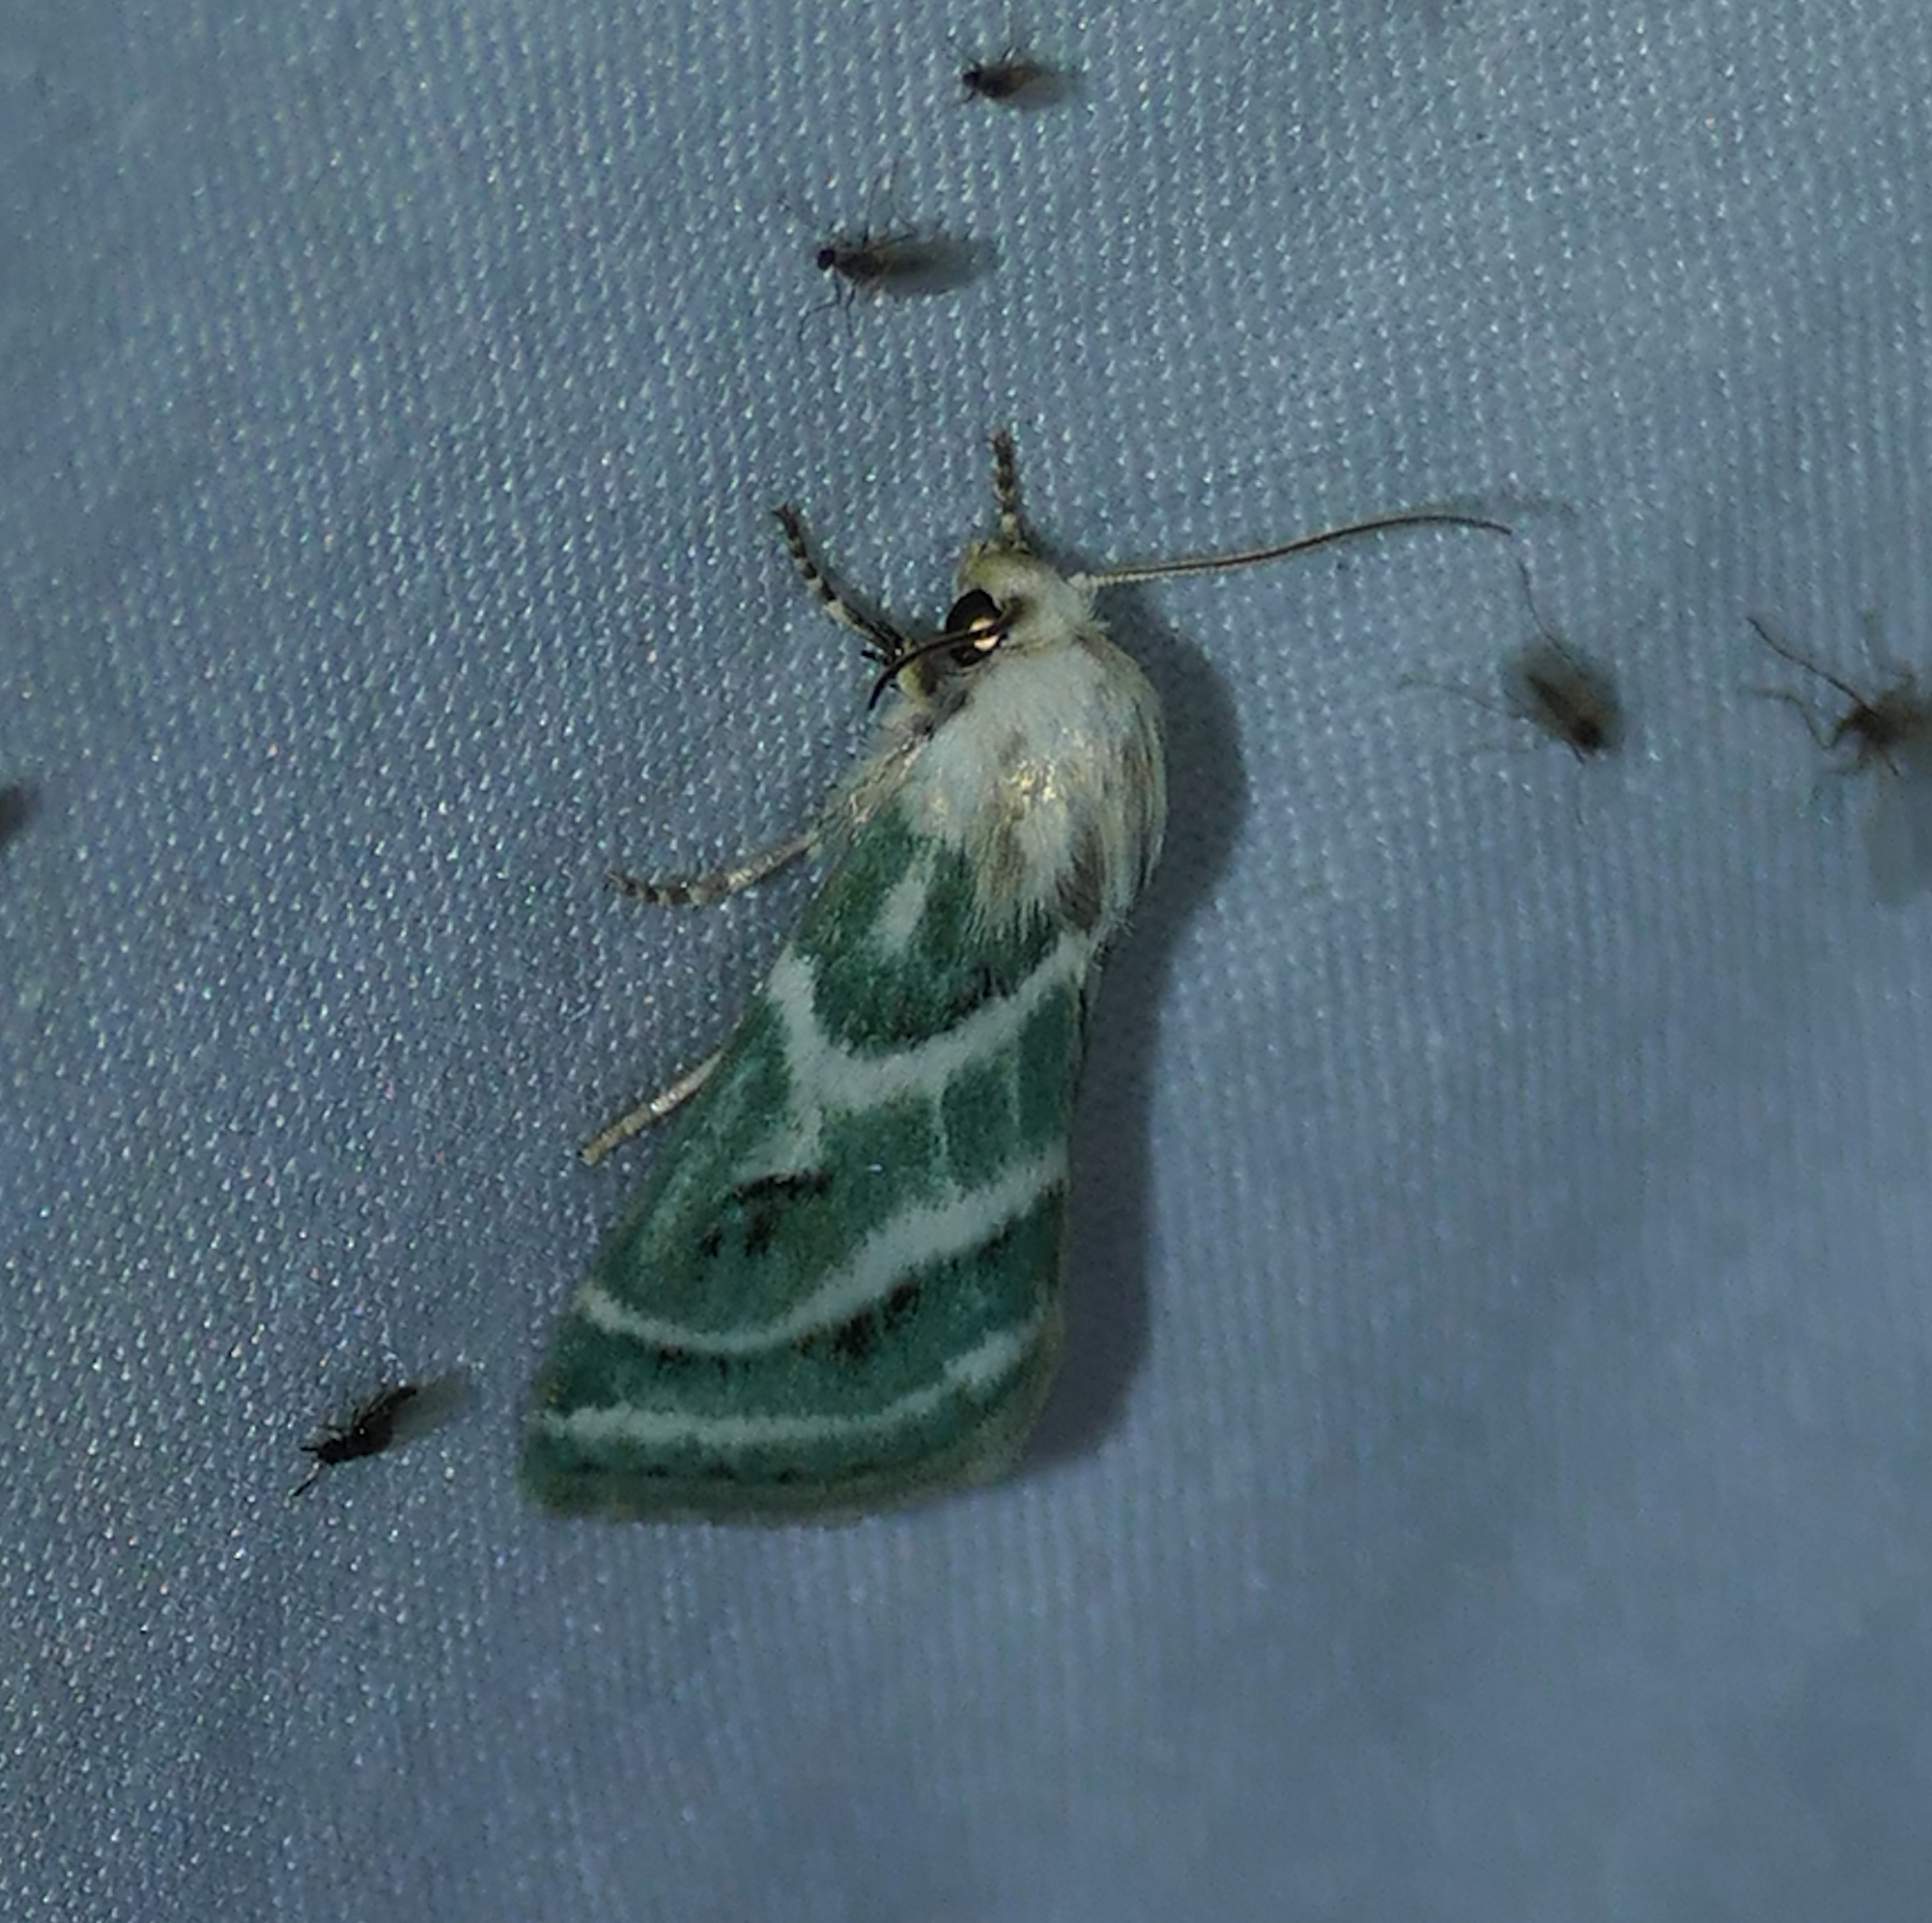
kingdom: Animalia
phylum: Arthropoda
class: Insecta
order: Lepidoptera
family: Noctuidae
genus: Schinia
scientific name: Schinia accessa
